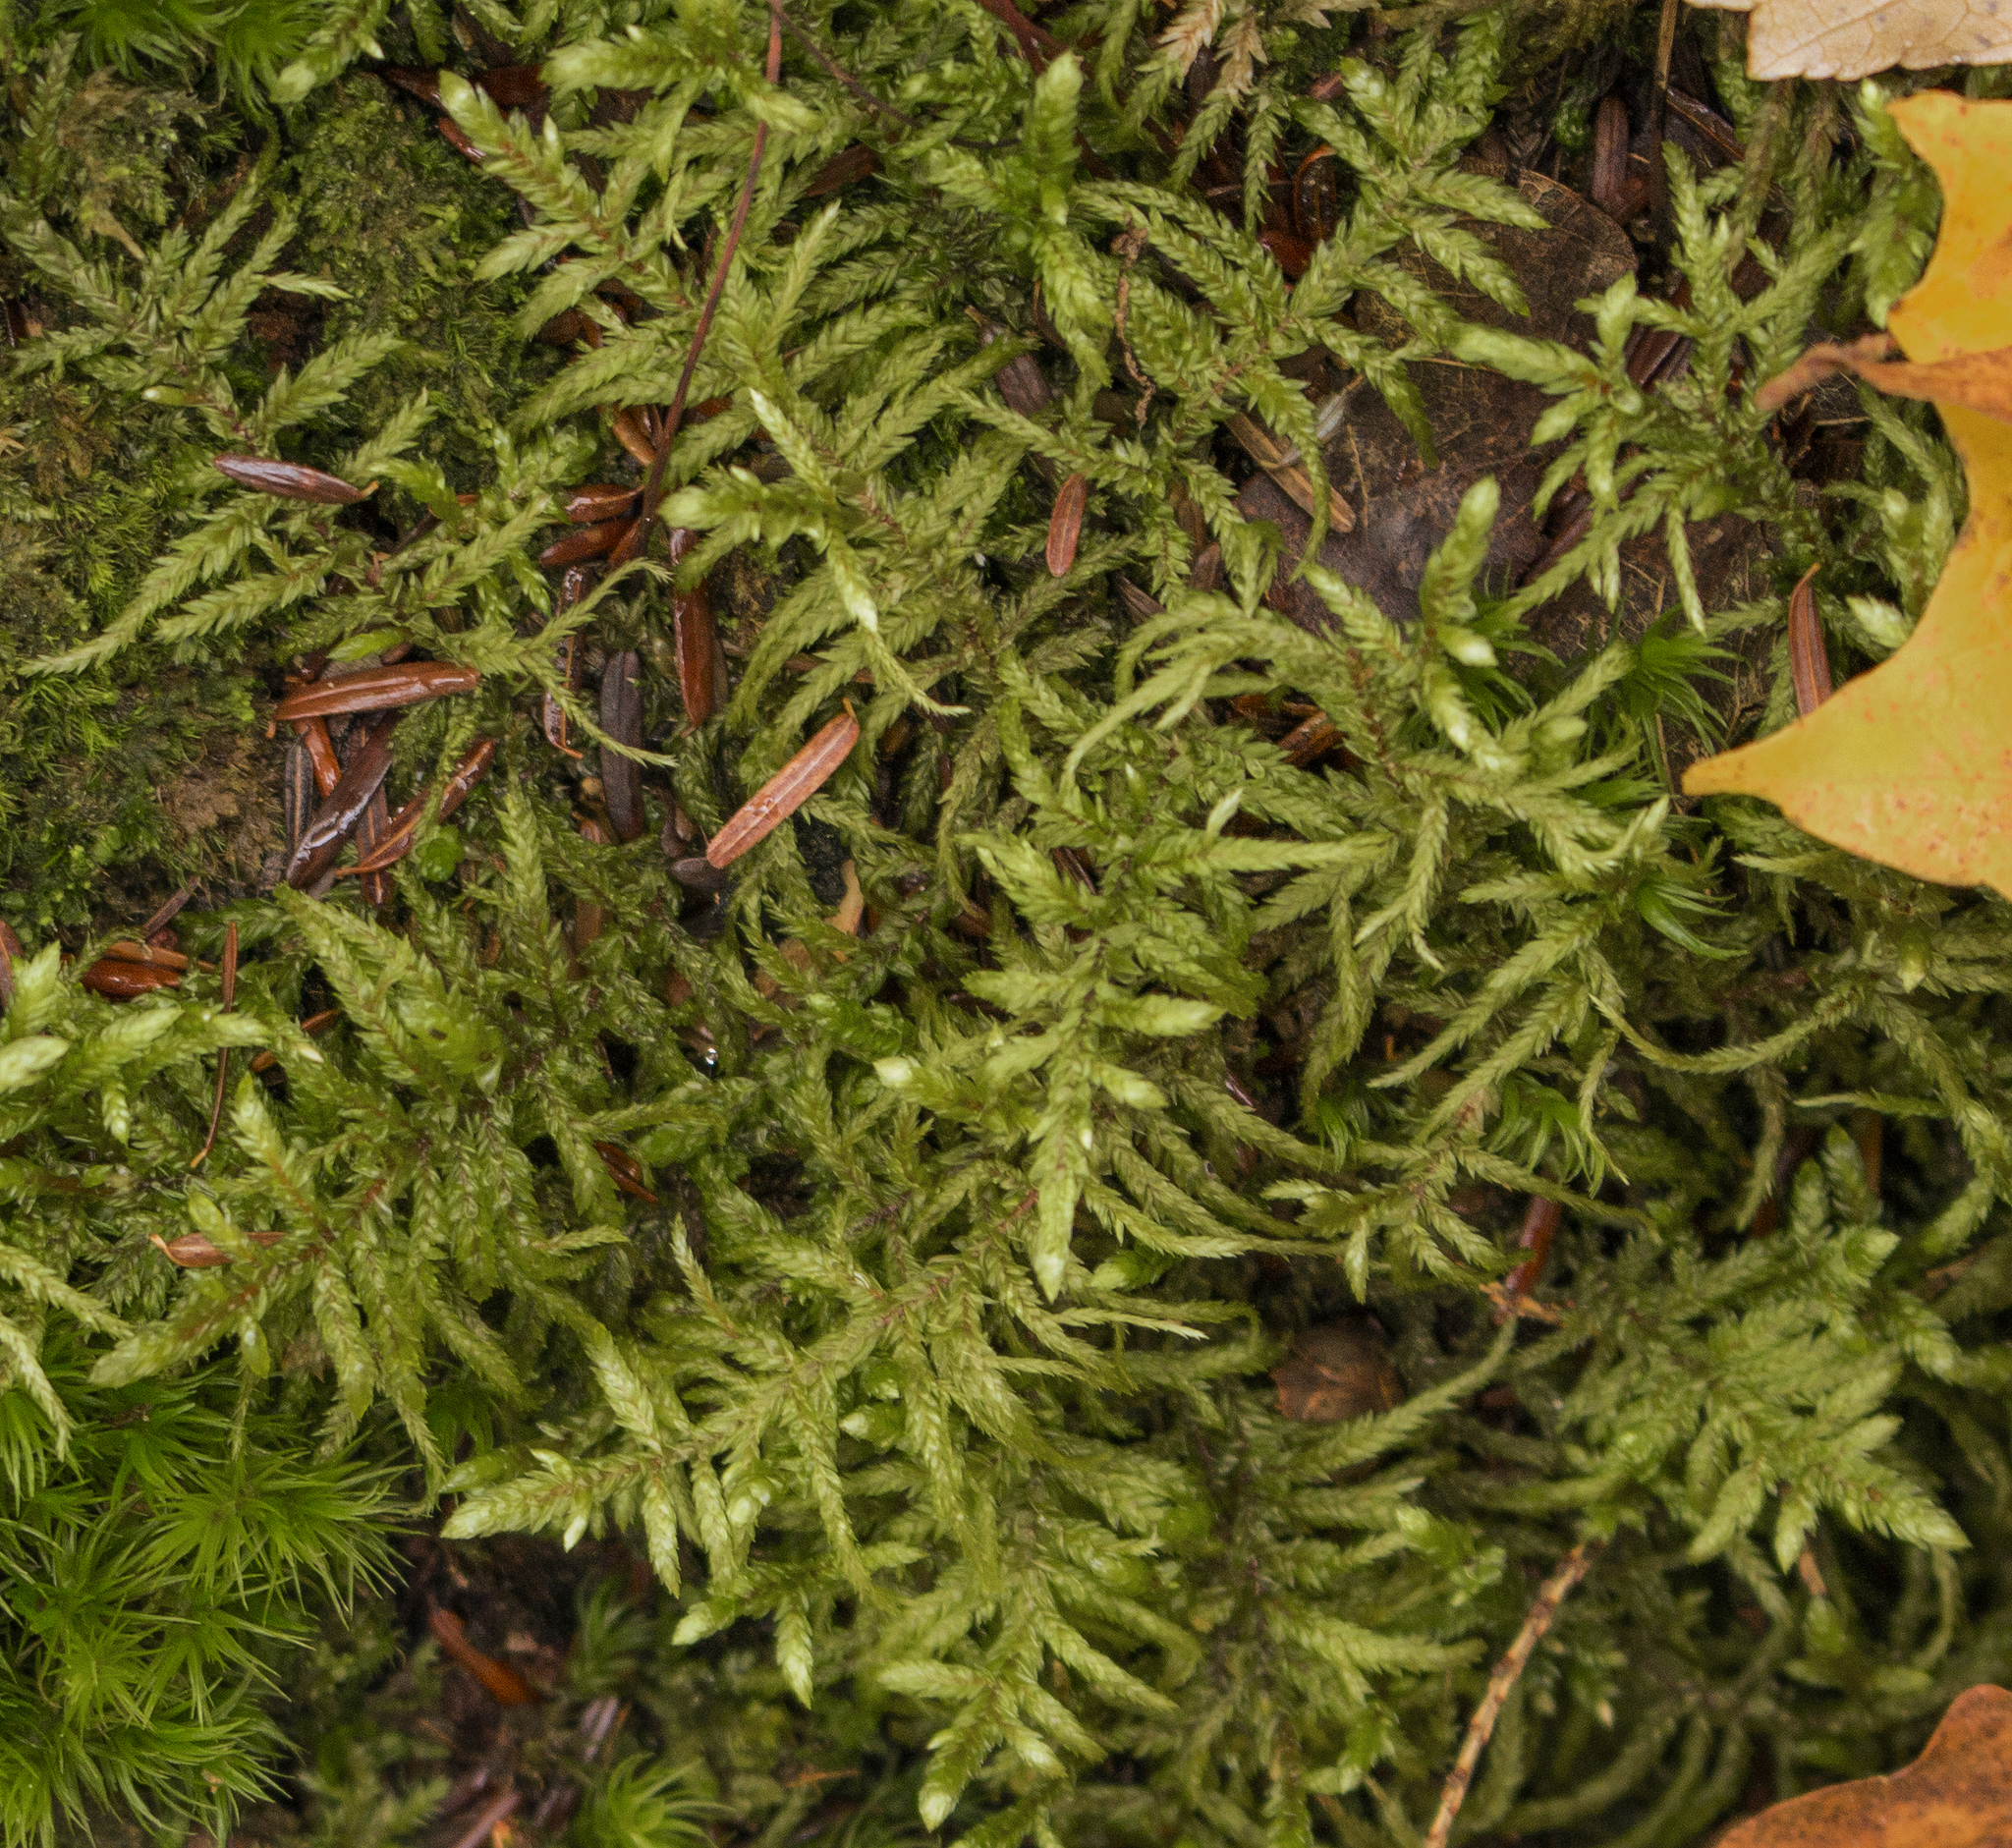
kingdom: Plantae
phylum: Bryophyta
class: Bryopsida
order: Hypnales
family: Hylocomiaceae
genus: Pleurozium
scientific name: Pleurozium schreberi
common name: Red-stemmed feather moss
